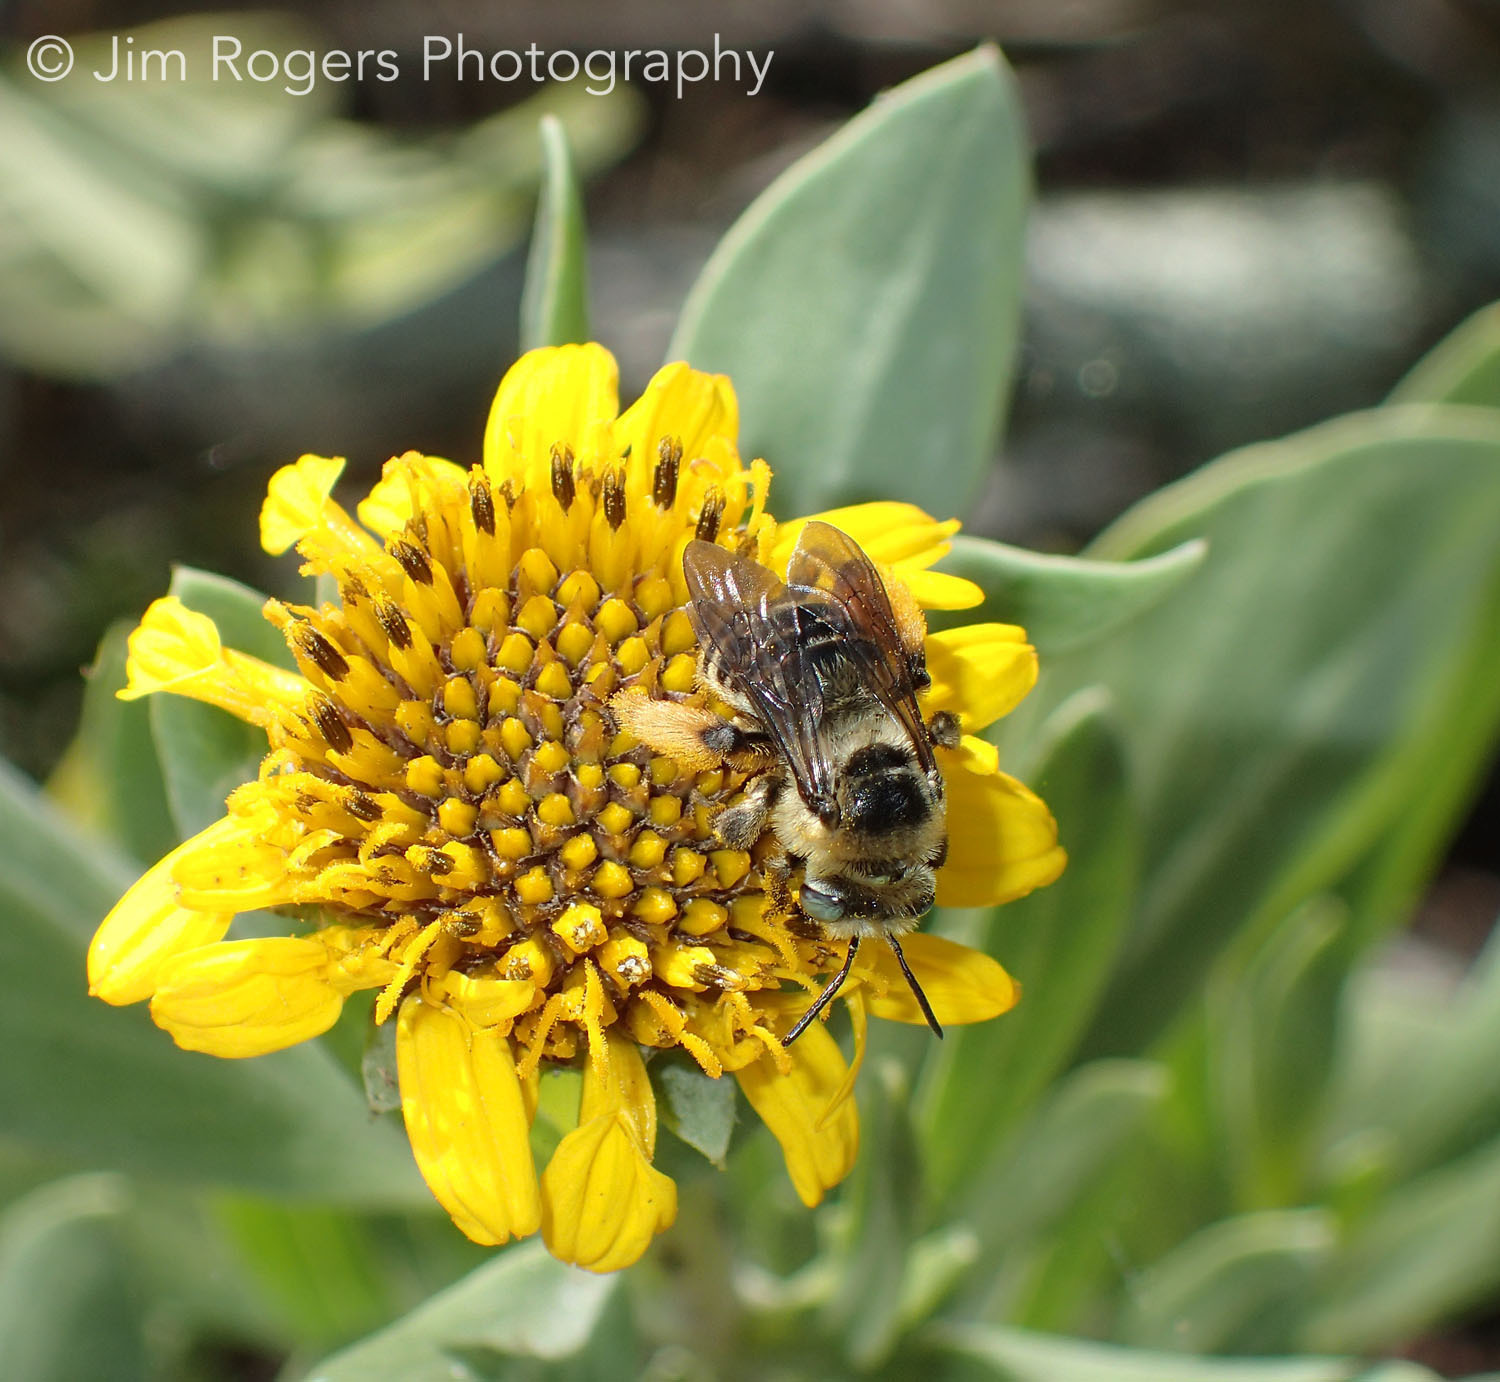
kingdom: Plantae
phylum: Tracheophyta
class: Magnoliopsida
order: Asterales
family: Asteraceae
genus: Borrichia
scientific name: Borrichia frutescens
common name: Sea oxeye
